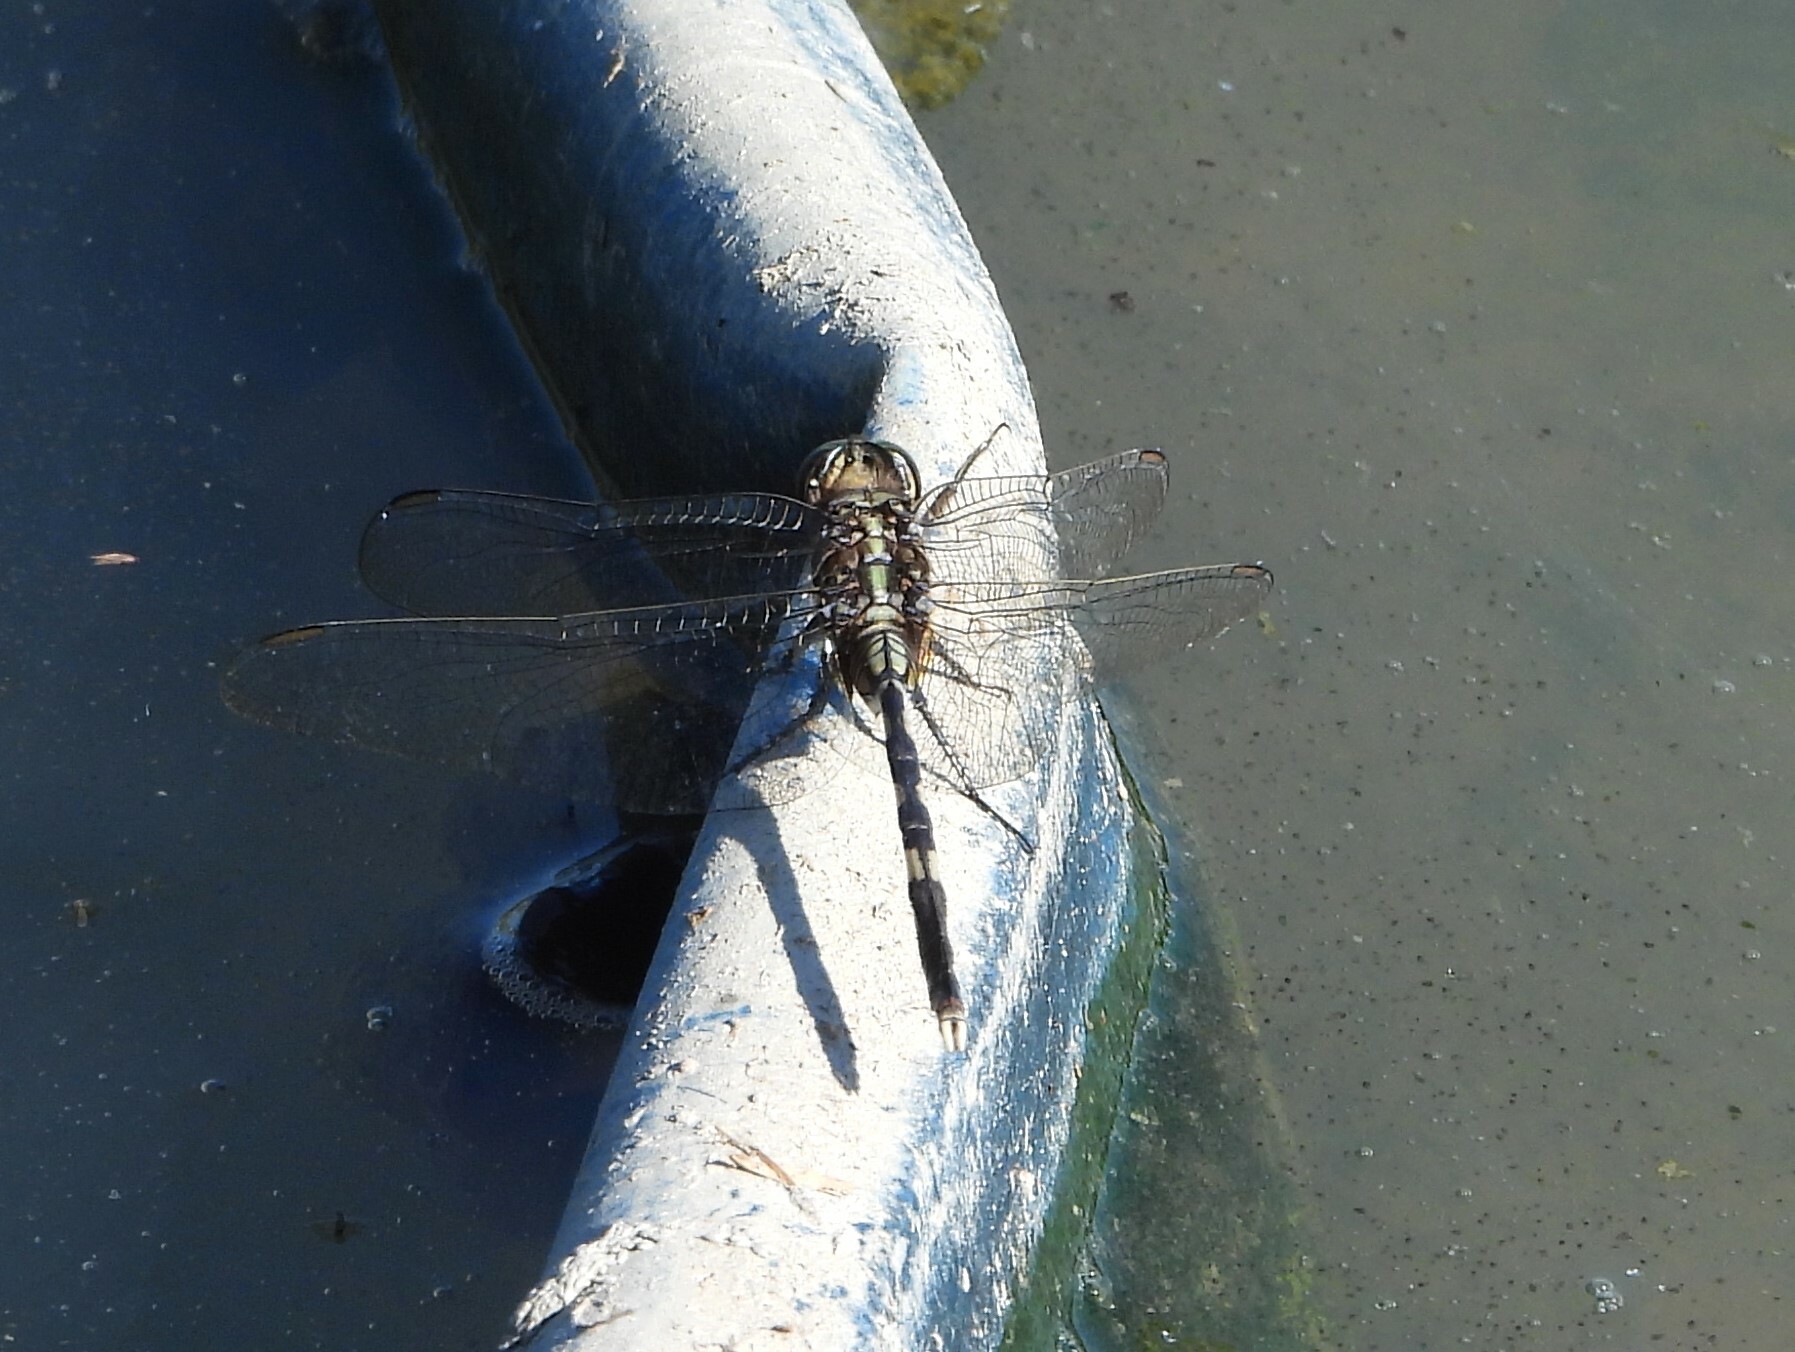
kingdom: Animalia
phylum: Arthropoda
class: Insecta
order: Odonata
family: Libellulidae
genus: Orthetrum
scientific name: Orthetrum sabina
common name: Slender skimmer
